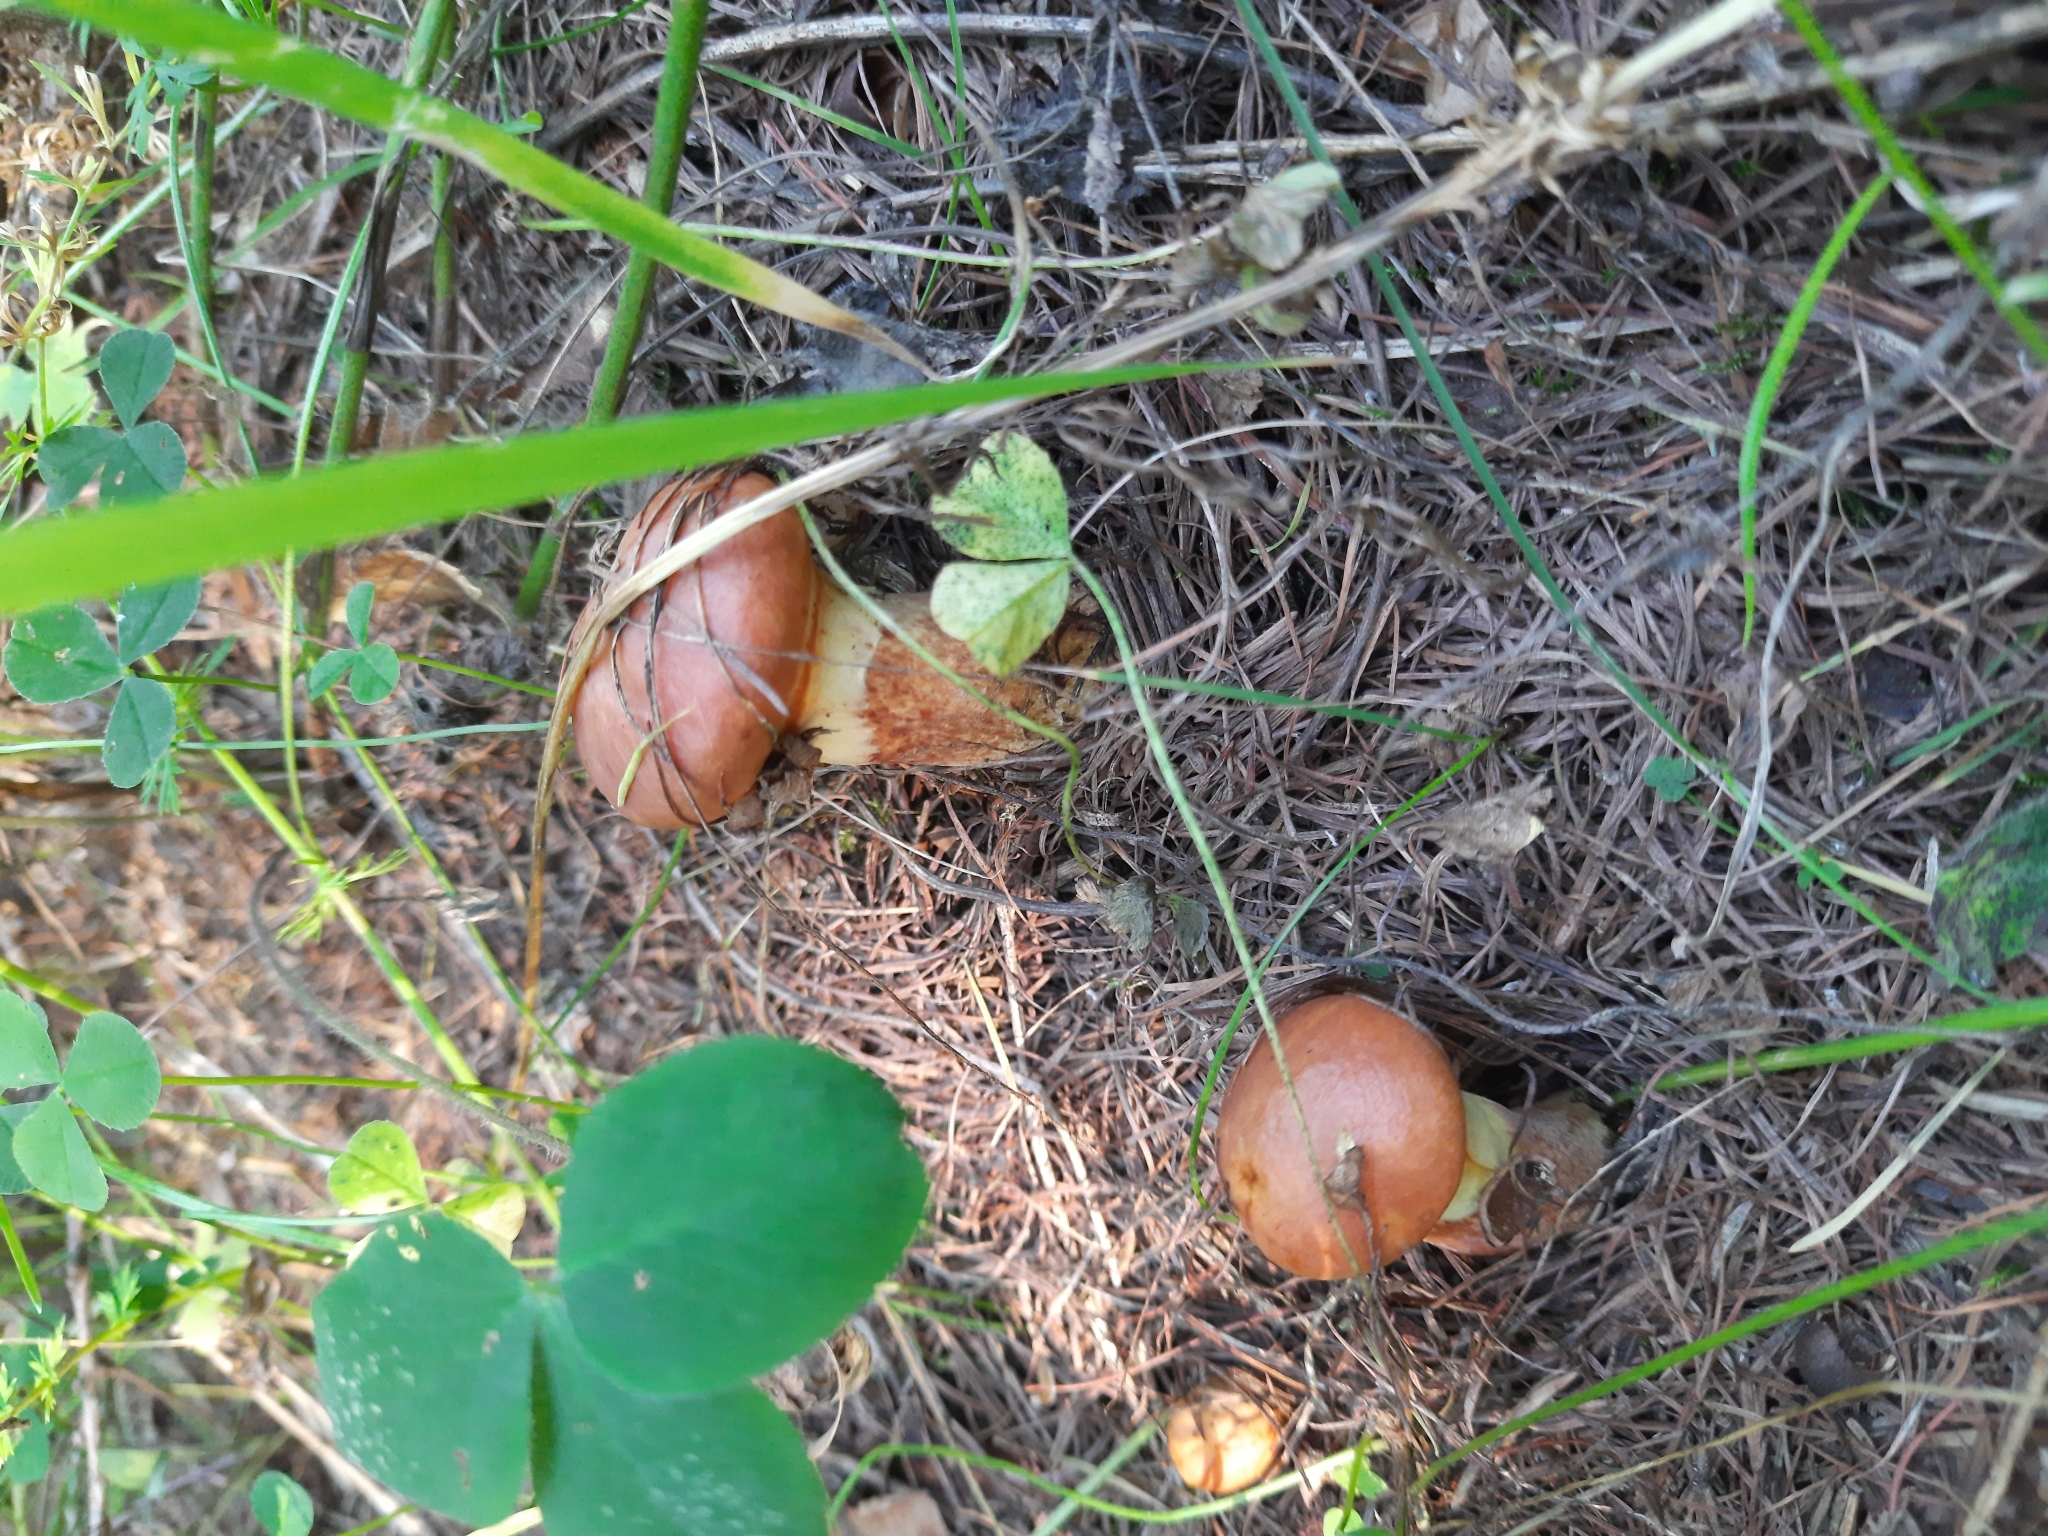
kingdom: Fungi
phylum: Basidiomycota
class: Agaricomycetes
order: Boletales
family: Suillaceae
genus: Suillus
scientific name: Suillus grevillei
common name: Larch bolete
